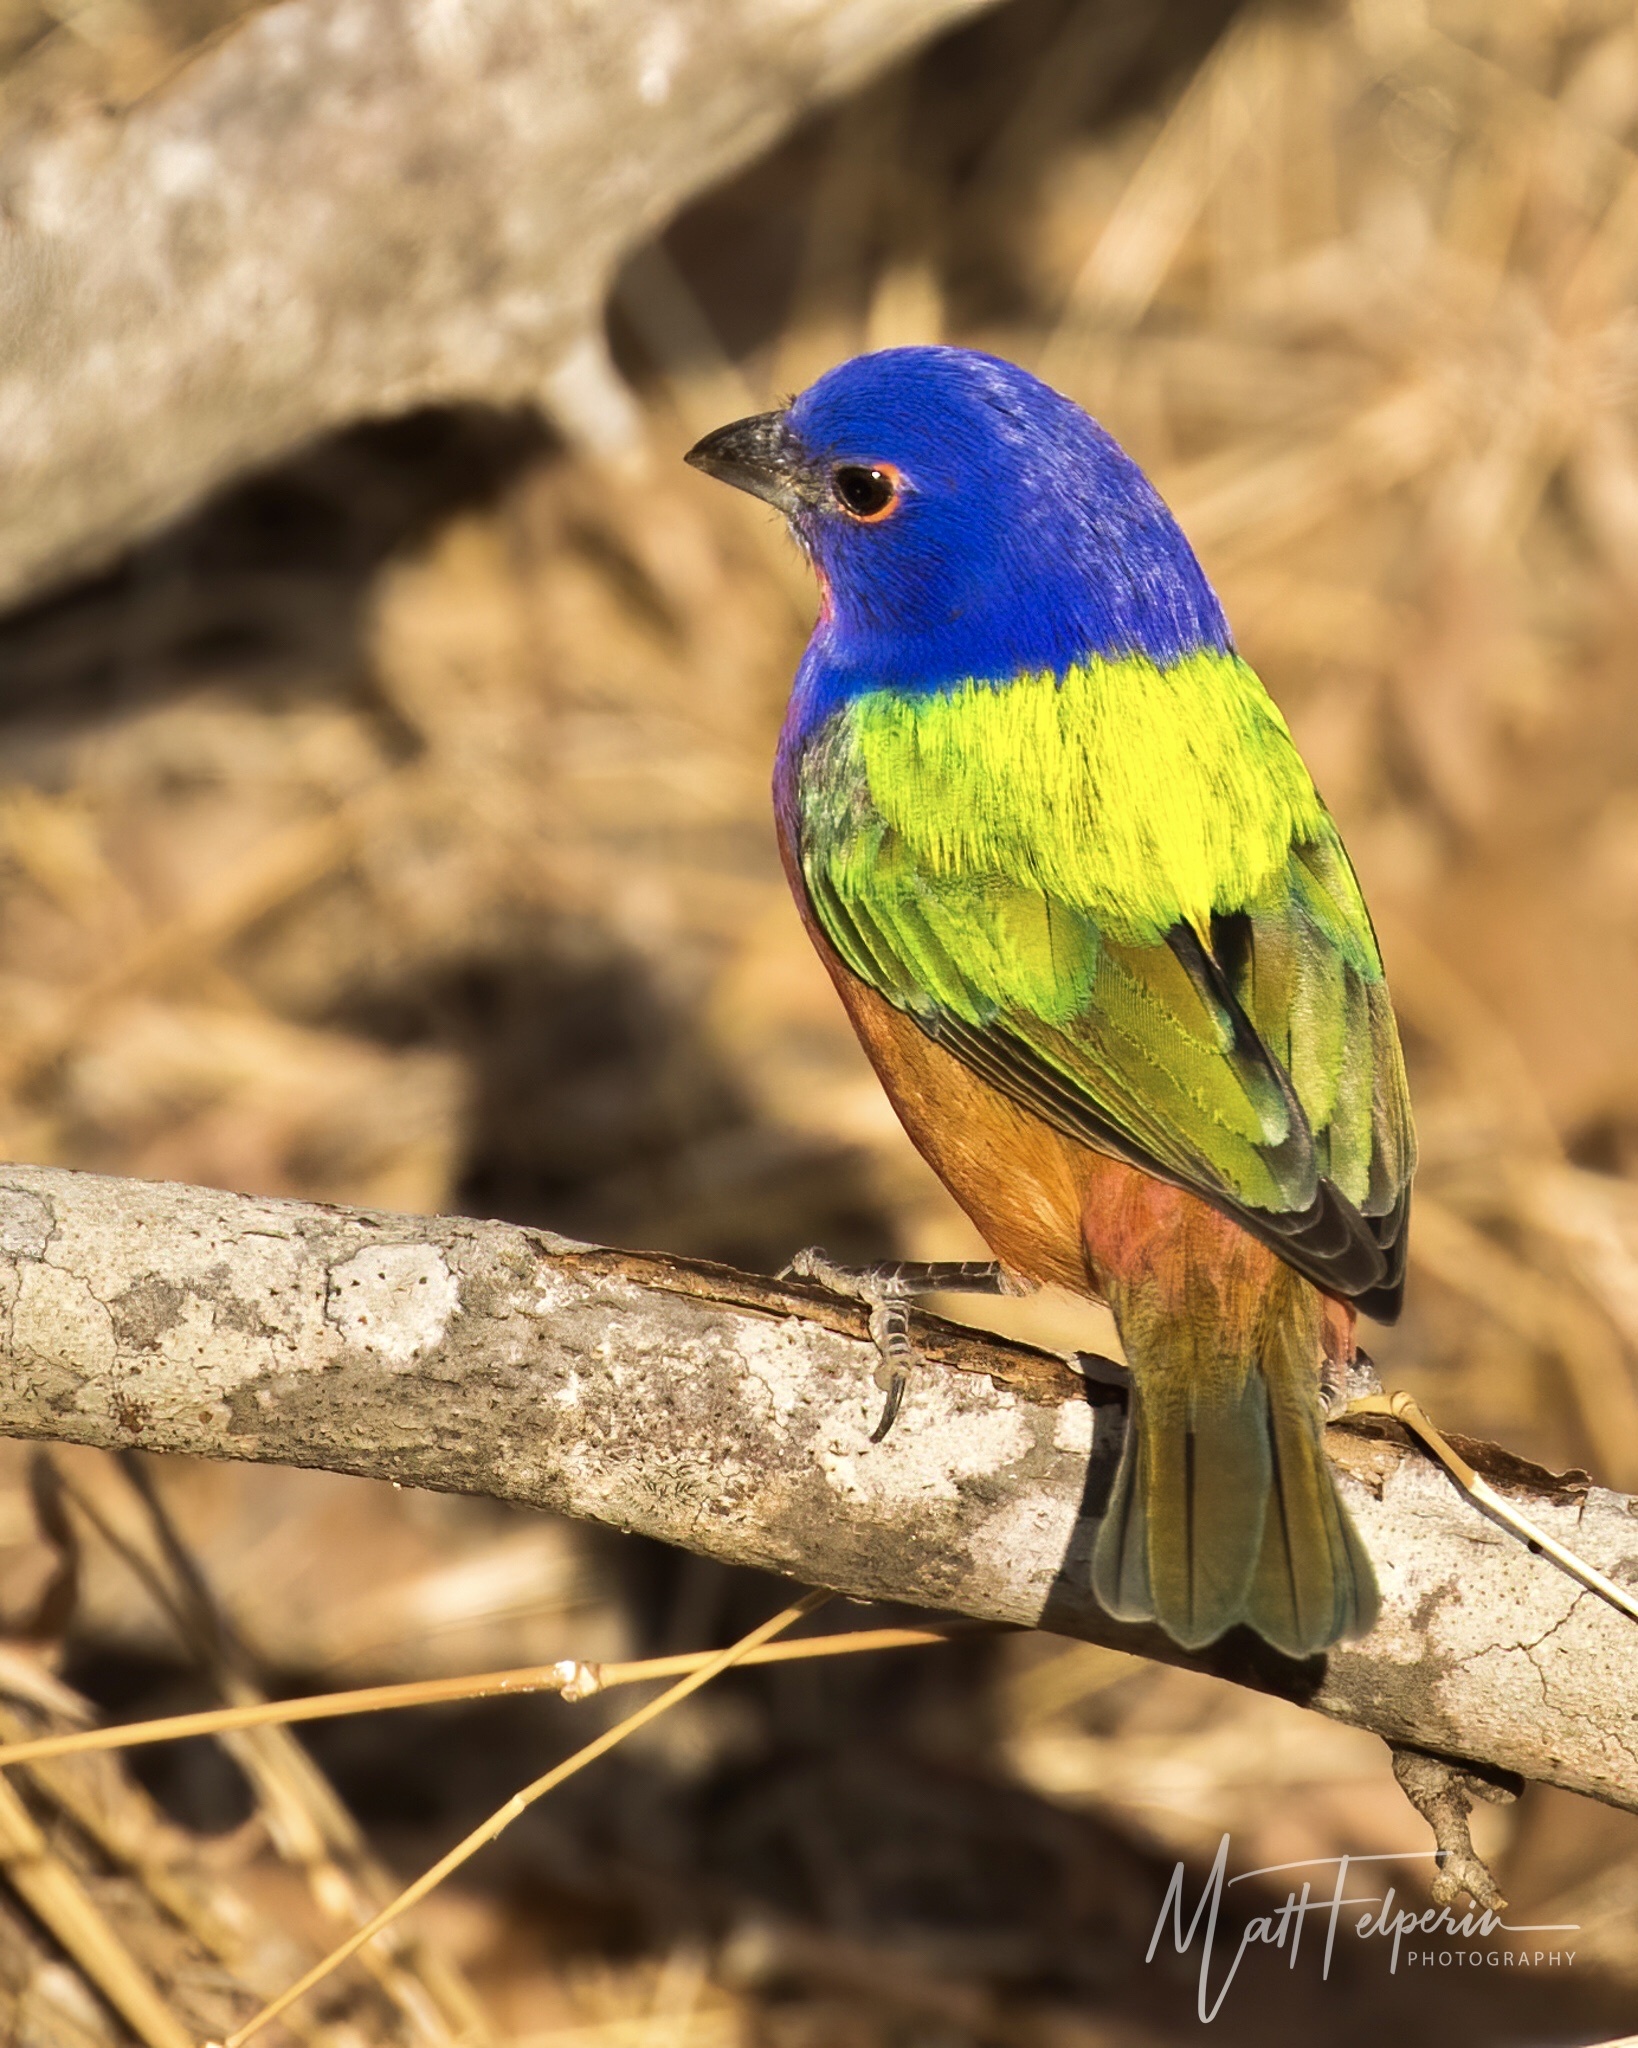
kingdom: Animalia
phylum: Chordata
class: Aves
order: Passeriformes
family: Cardinalidae
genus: Passerina
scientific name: Passerina ciris
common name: Painted bunting
